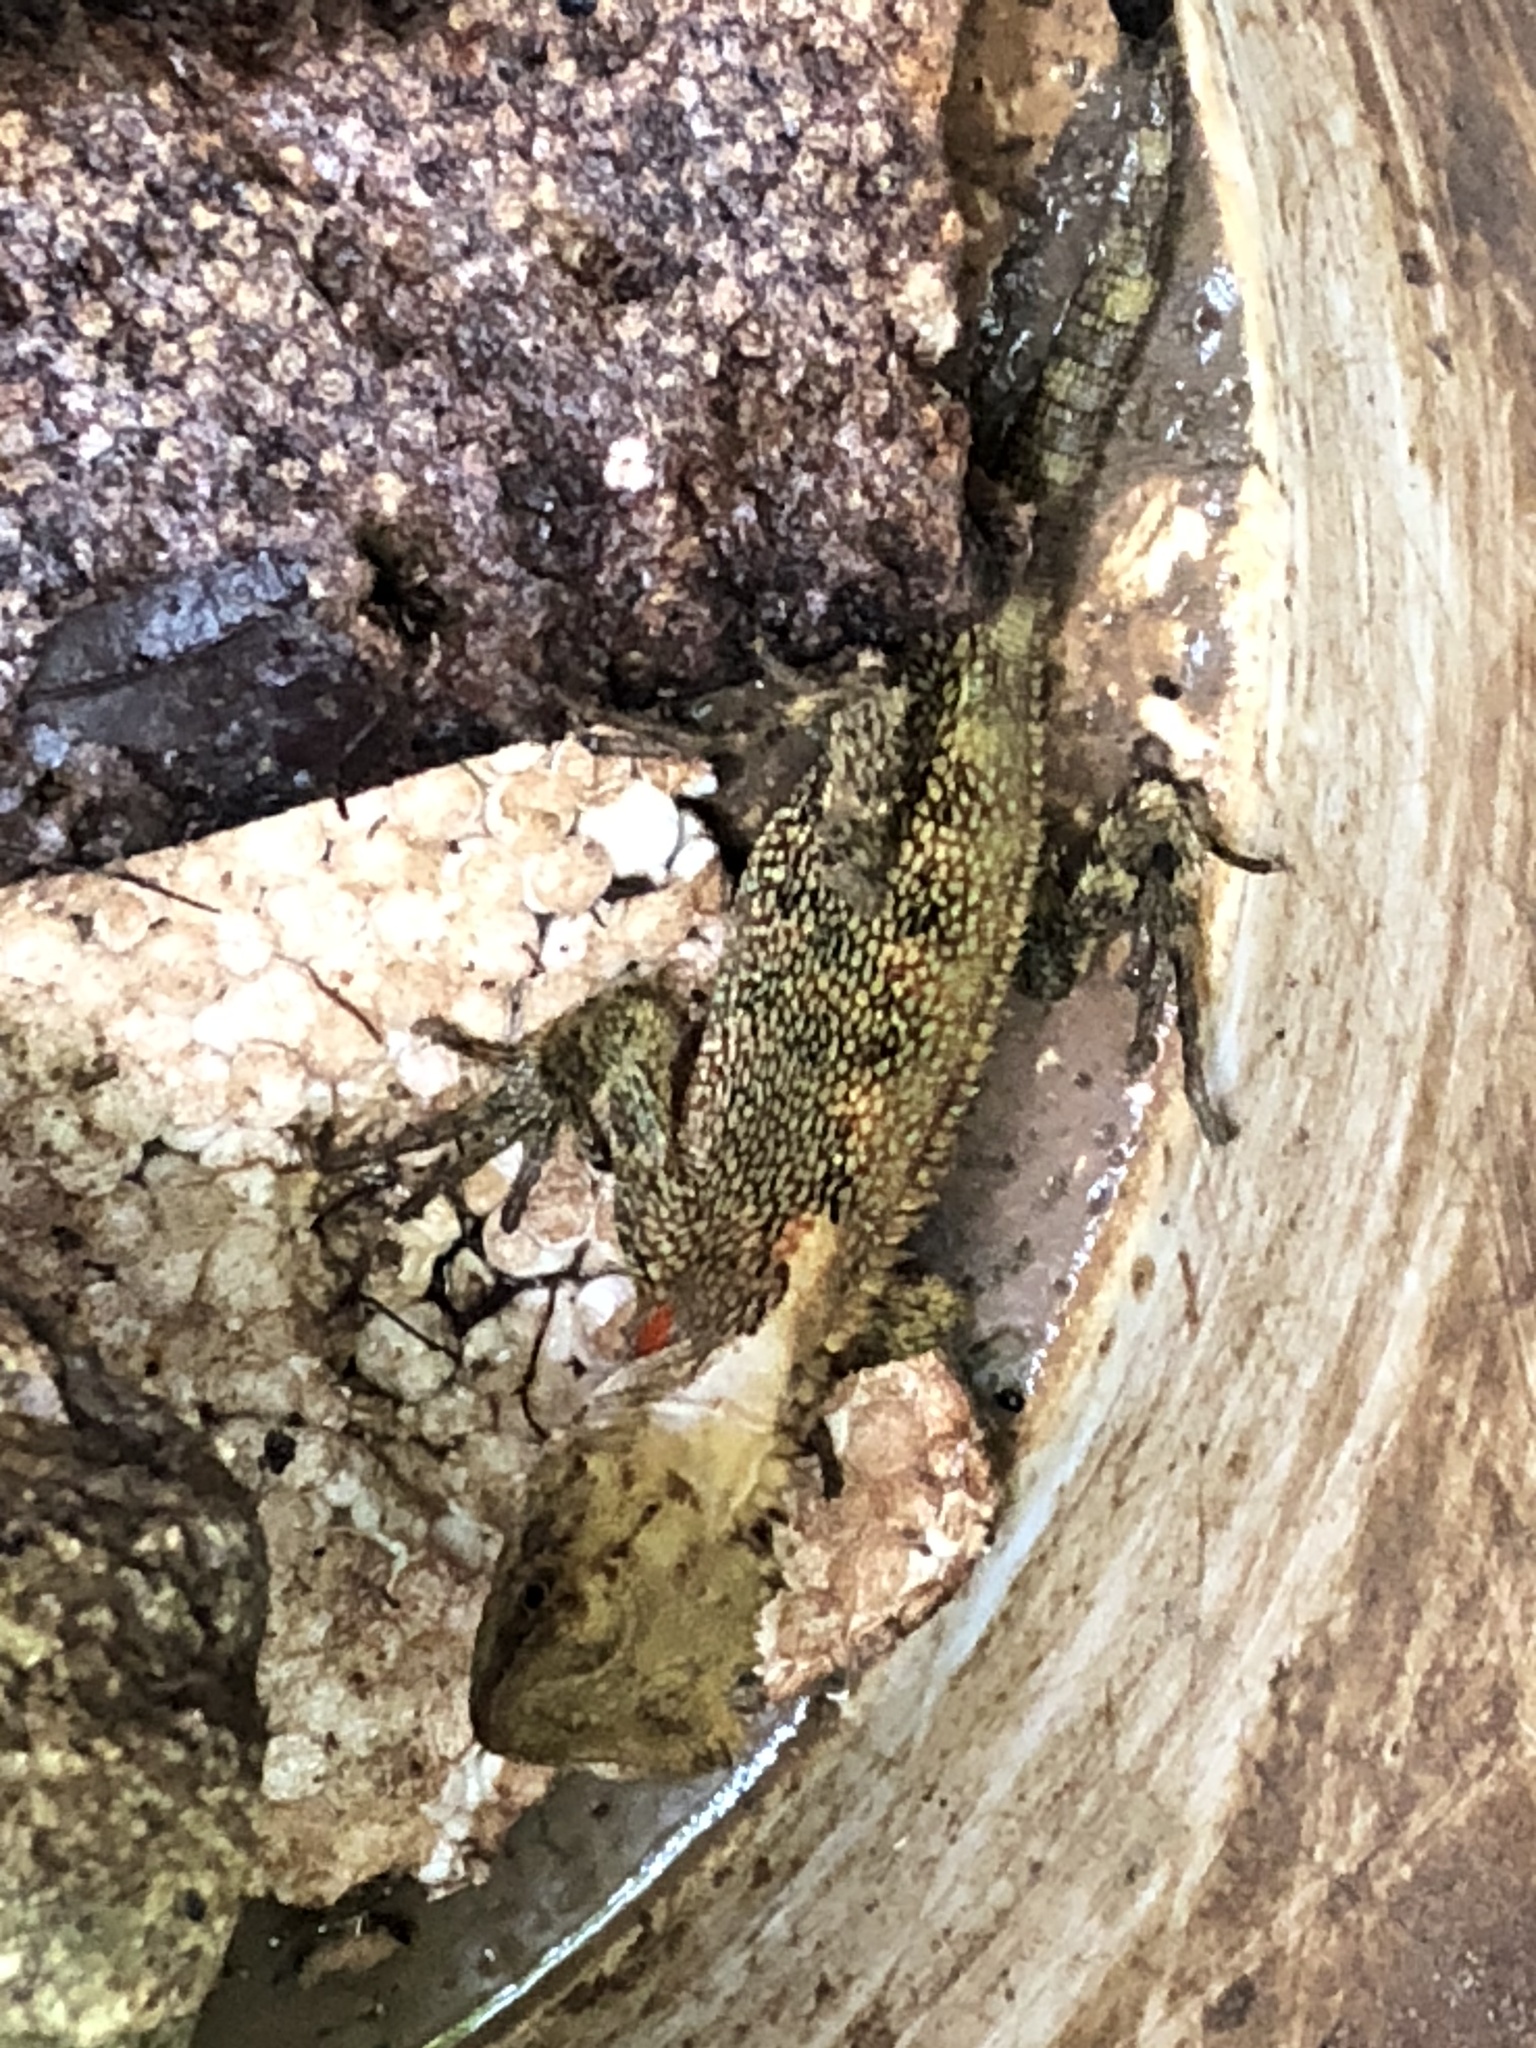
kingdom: Animalia
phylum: Chordata
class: Squamata
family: Hoplocercidae
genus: Enyalioides
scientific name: Enyalioides palpebralis
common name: Boulenger's dwarf iguana
